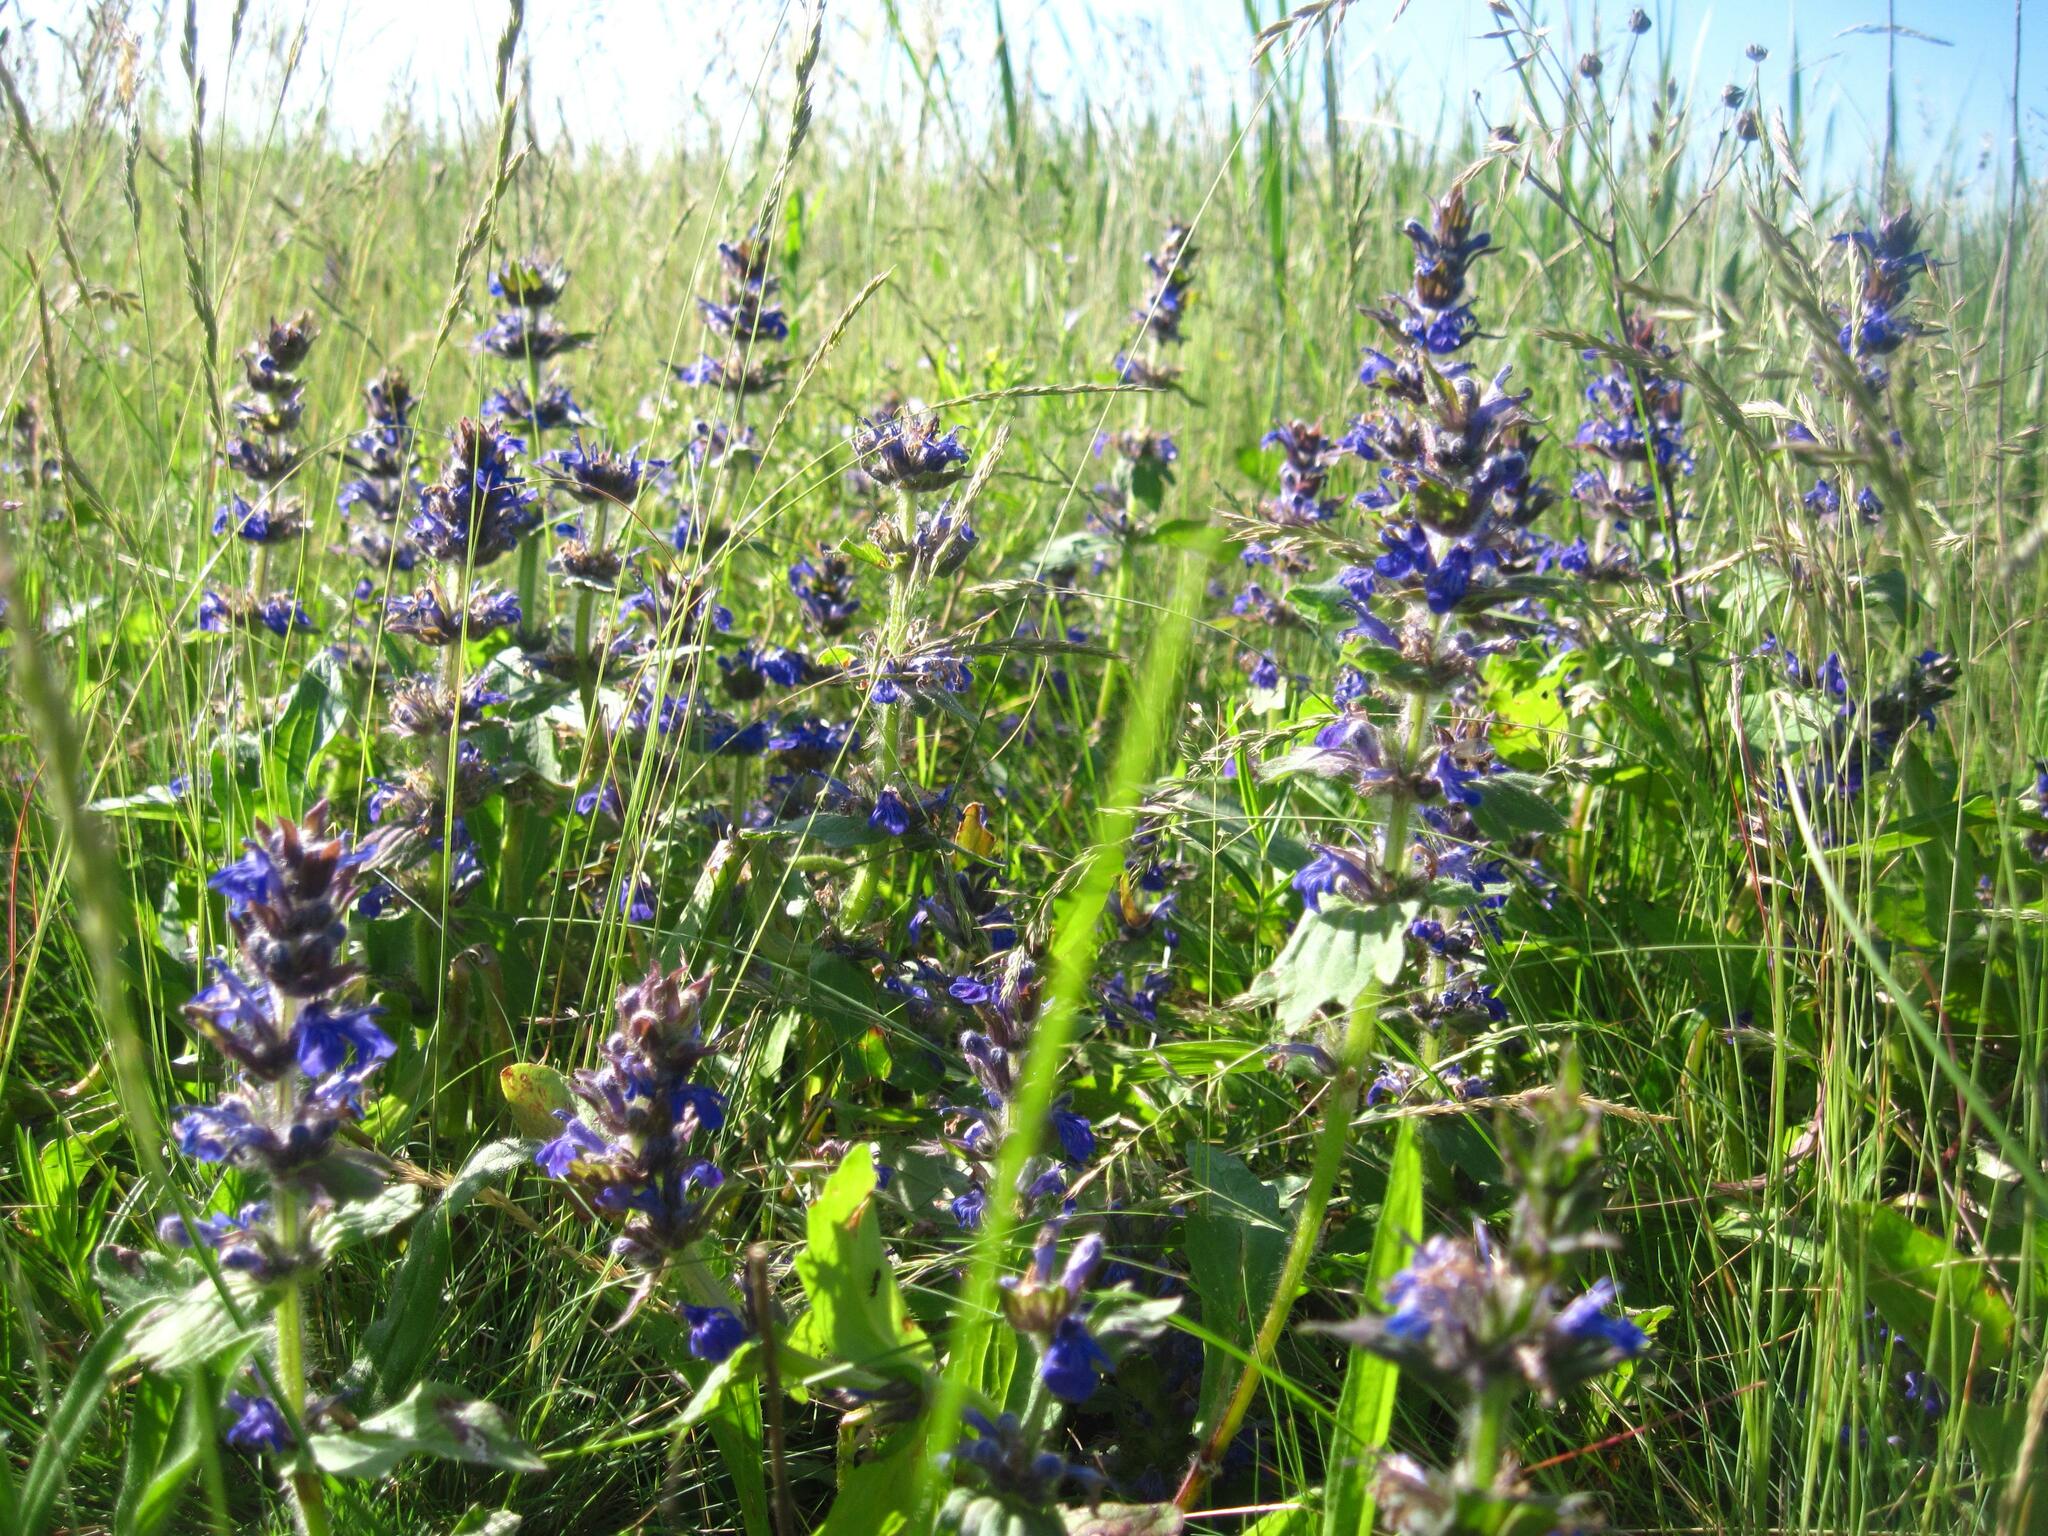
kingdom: Plantae
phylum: Tracheophyta
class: Magnoliopsida
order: Lamiales
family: Lamiaceae
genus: Ajuga
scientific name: Ajuga genevensis
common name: Blue bugle
